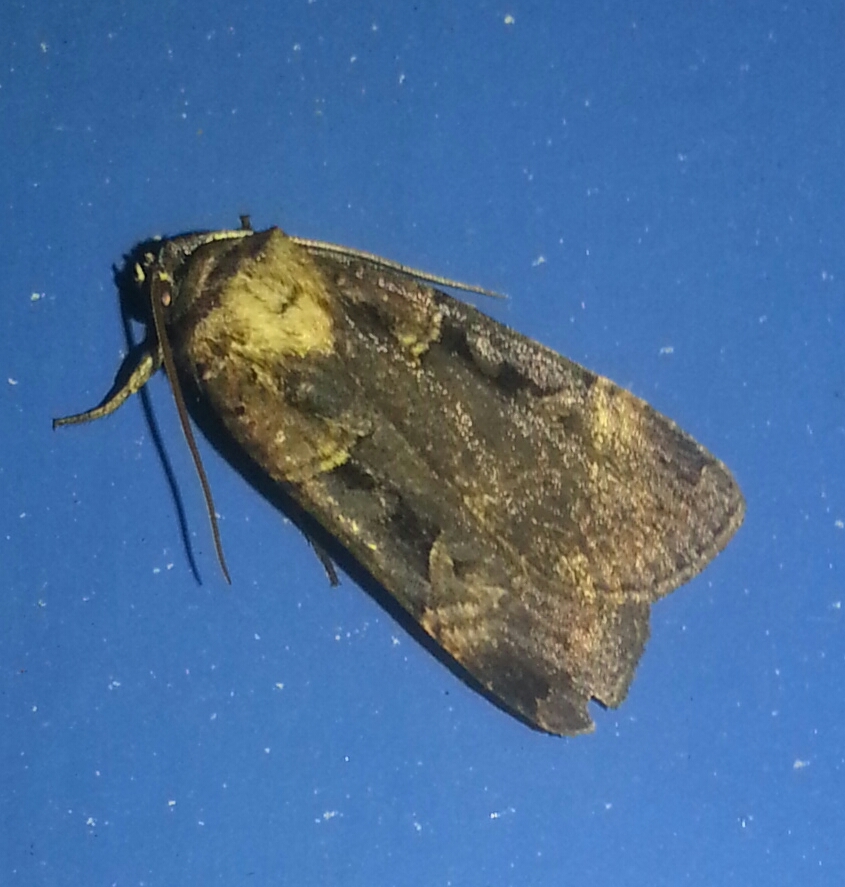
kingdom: Animalia
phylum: Arthropoda
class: Insecta
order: Lepidoptera
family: Noctuidae
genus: Pseudohermonassa
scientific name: Pseudohermonassa bicarnea
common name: Pink spotted dart
